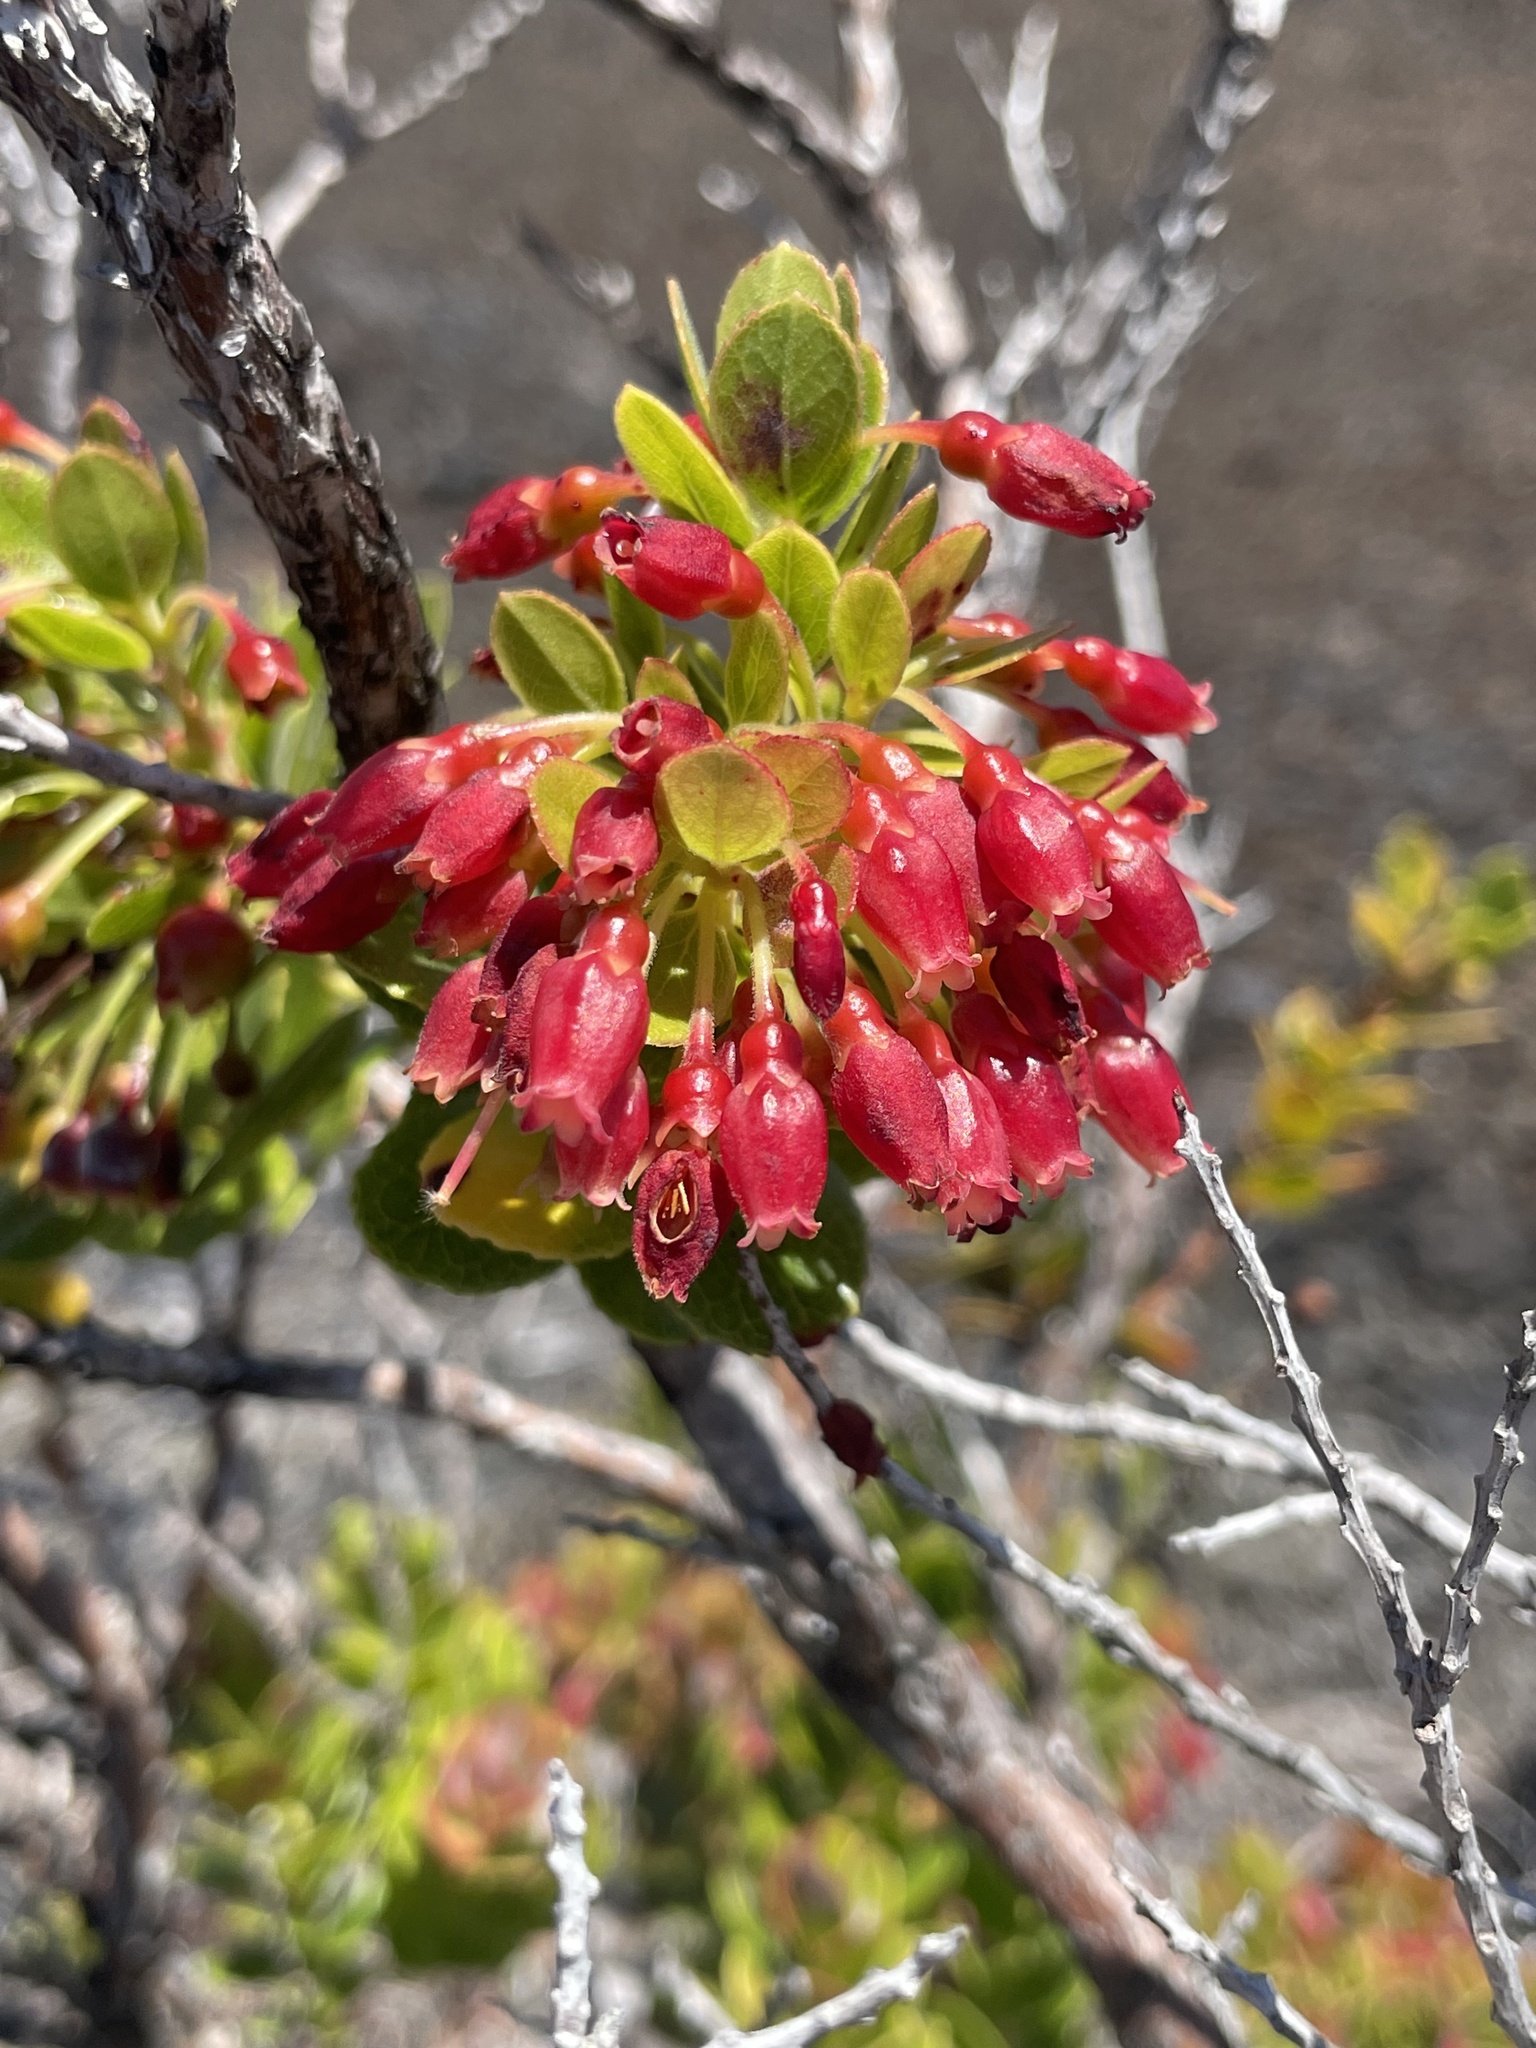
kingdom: Plantae
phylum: Tracheophyta
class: Magnoliopsida
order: Ericales
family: Ericaceae
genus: Vaccinium
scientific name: Vaccinium reticulatum
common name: Ohelo
